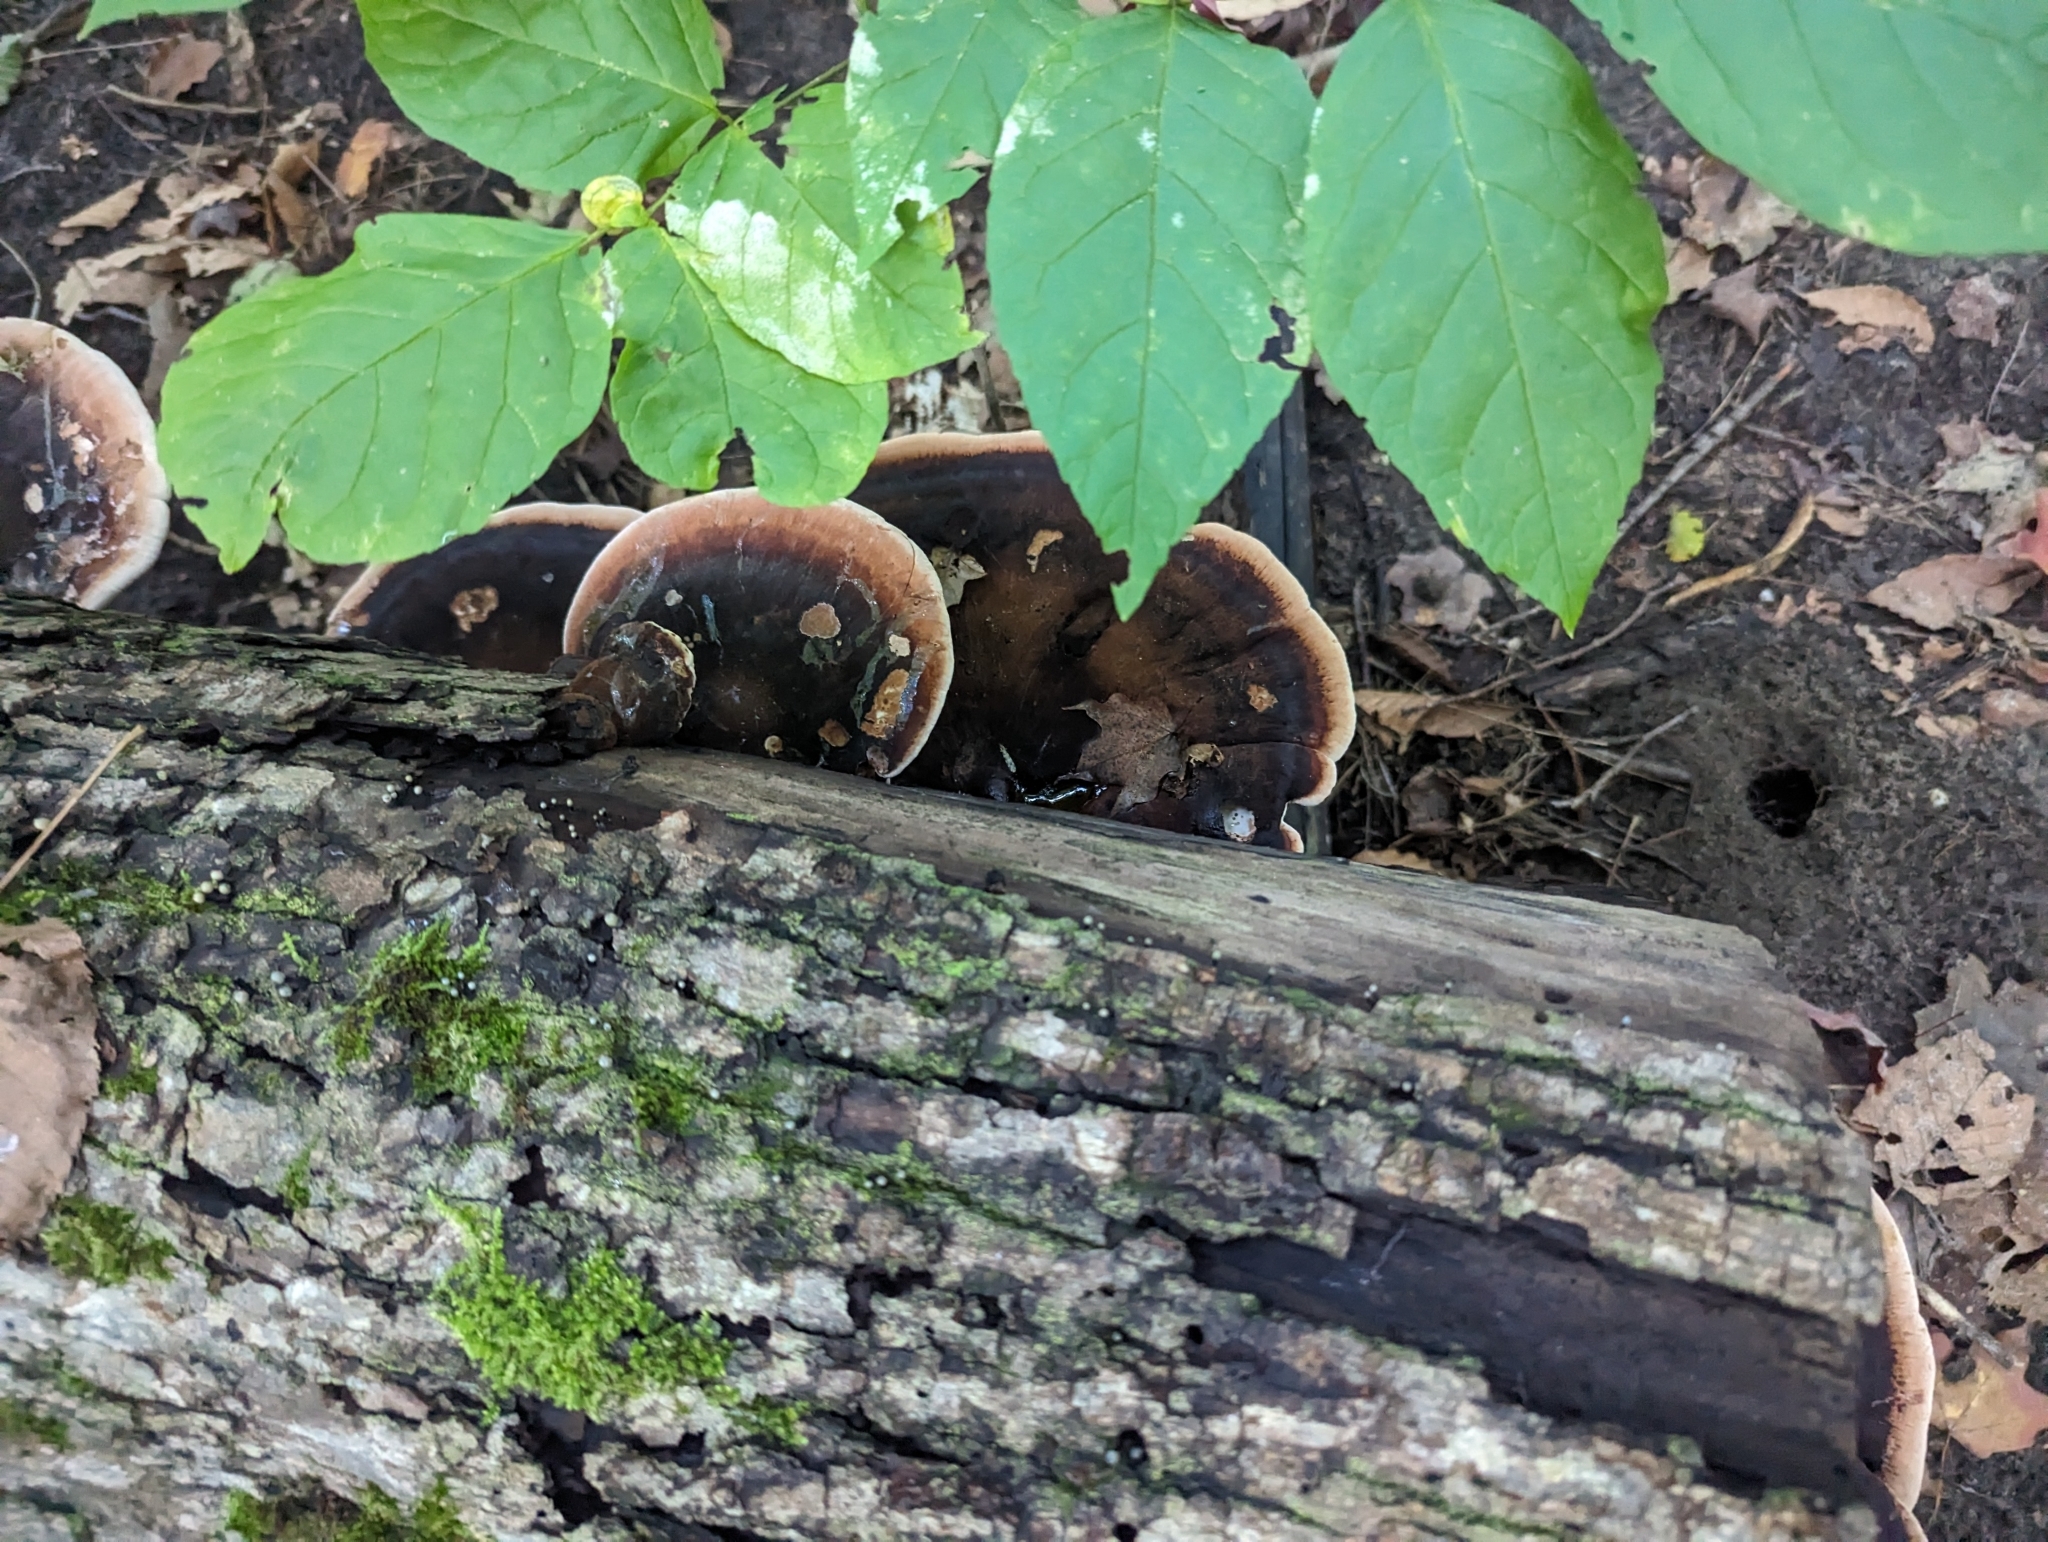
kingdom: Fungi
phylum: Basidiomycota
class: Agaricomycetes
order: Polyporales
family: Ischnodermataceae
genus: Ischnoderma
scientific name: Ischnoderma resinosum
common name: Resinous polypore
